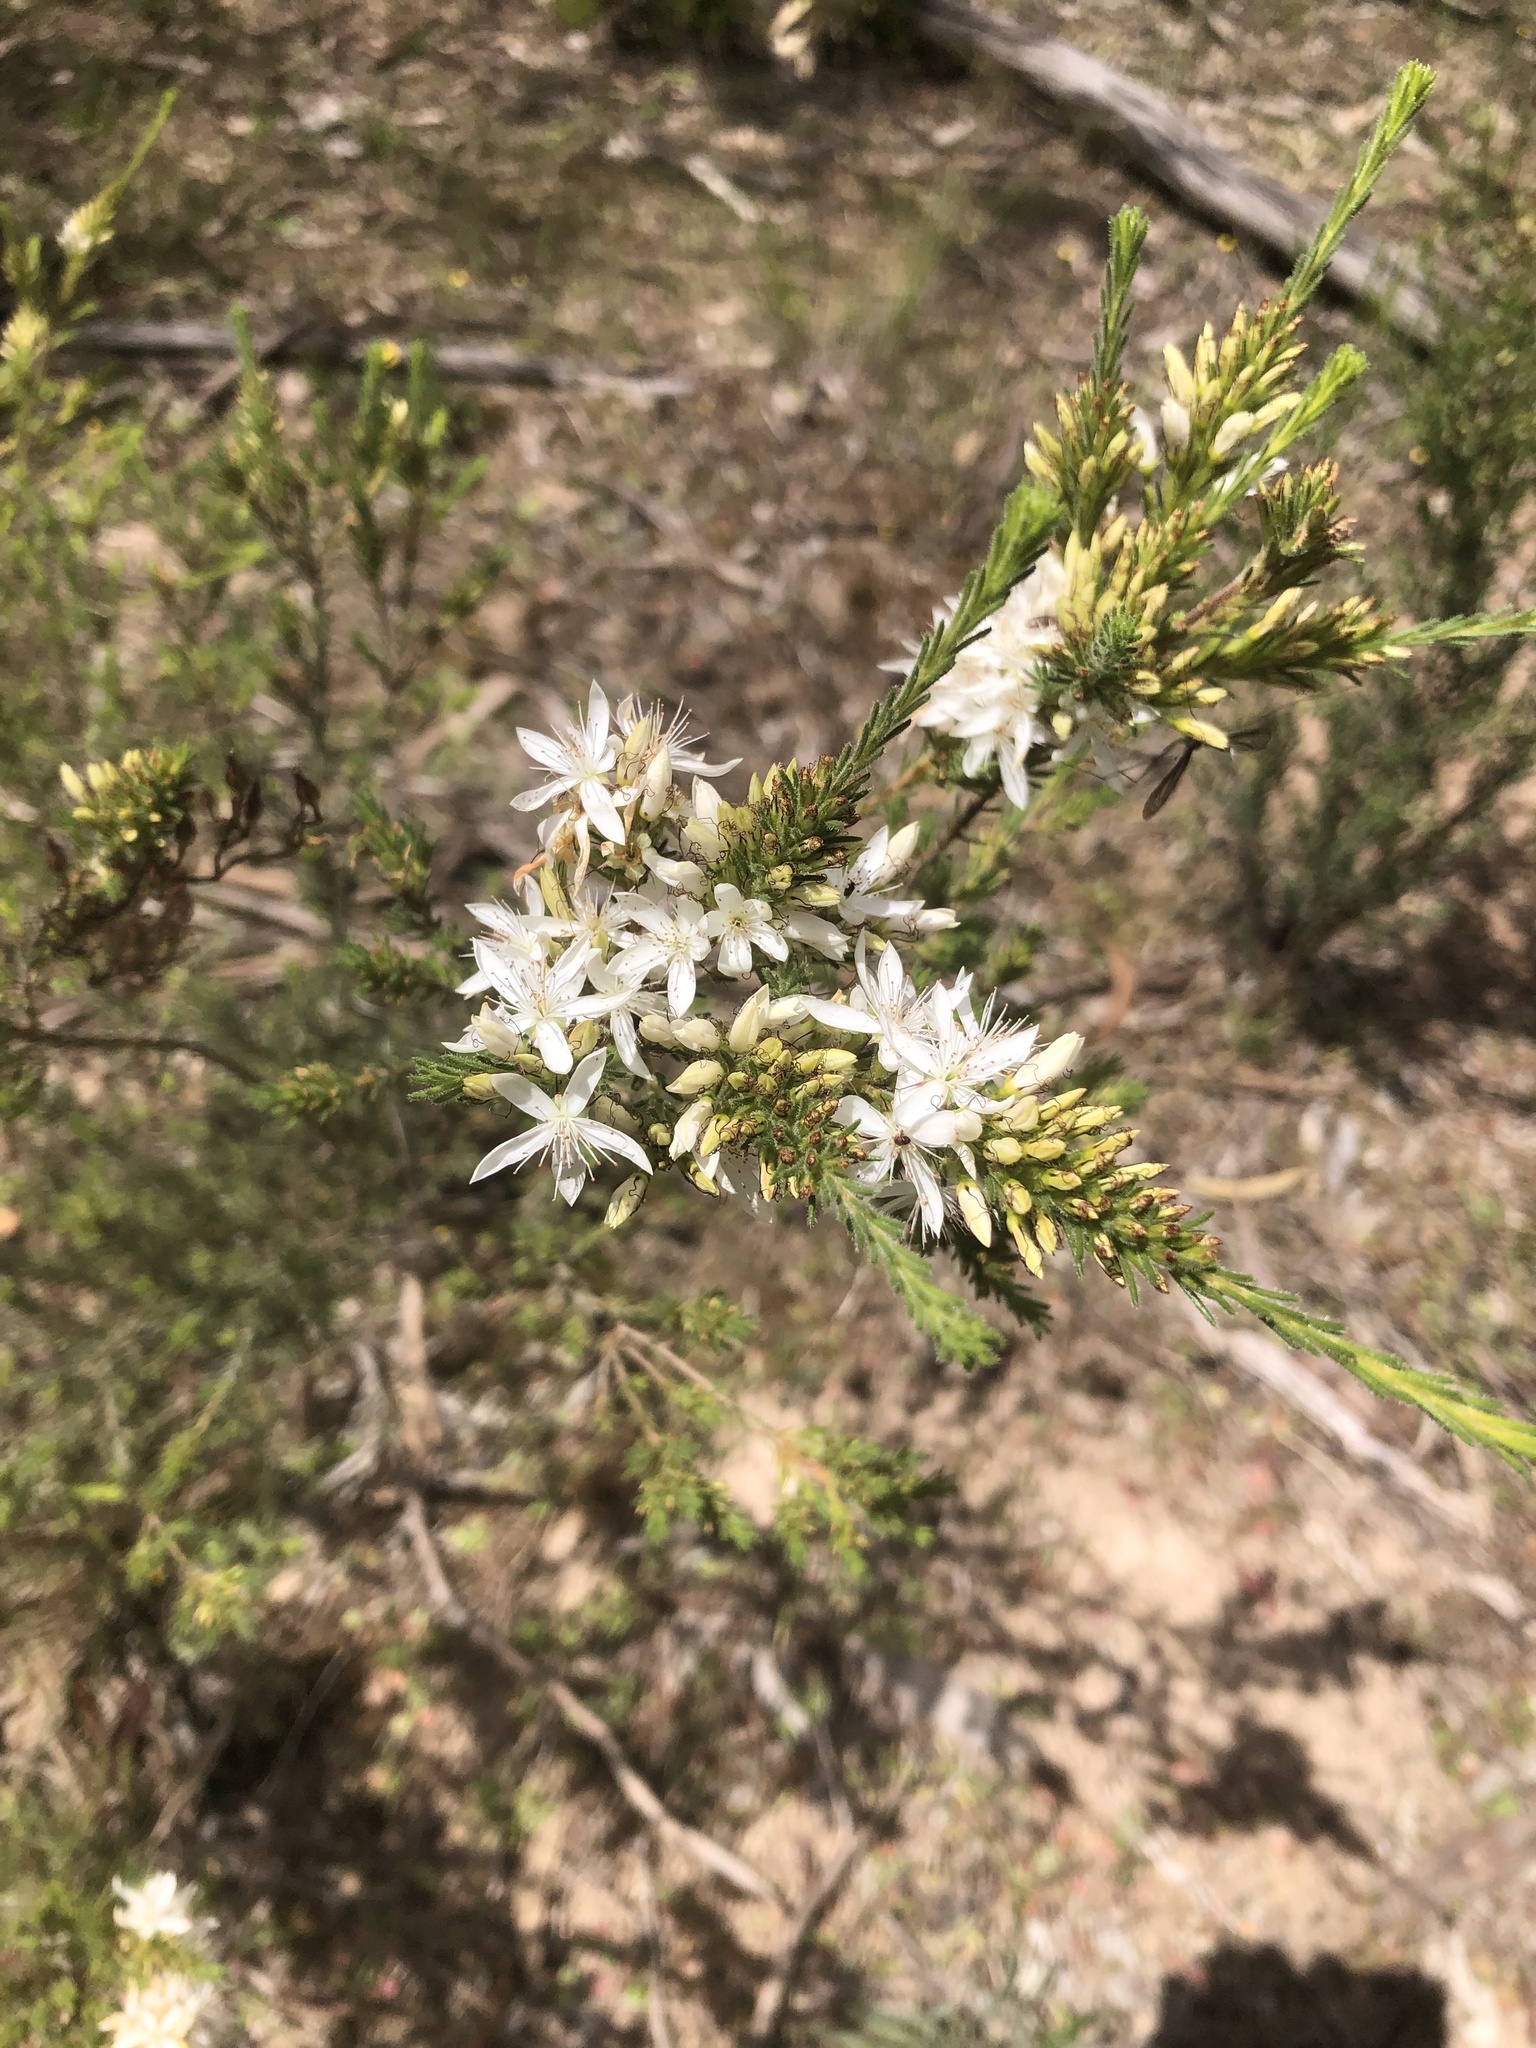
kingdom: Plantae
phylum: Tracheophyta
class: Magnoliopsida
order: Myrtales
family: Myrtaceae
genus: Calytrix
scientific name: Calytrix tetragona
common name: Common fringe myrtle
